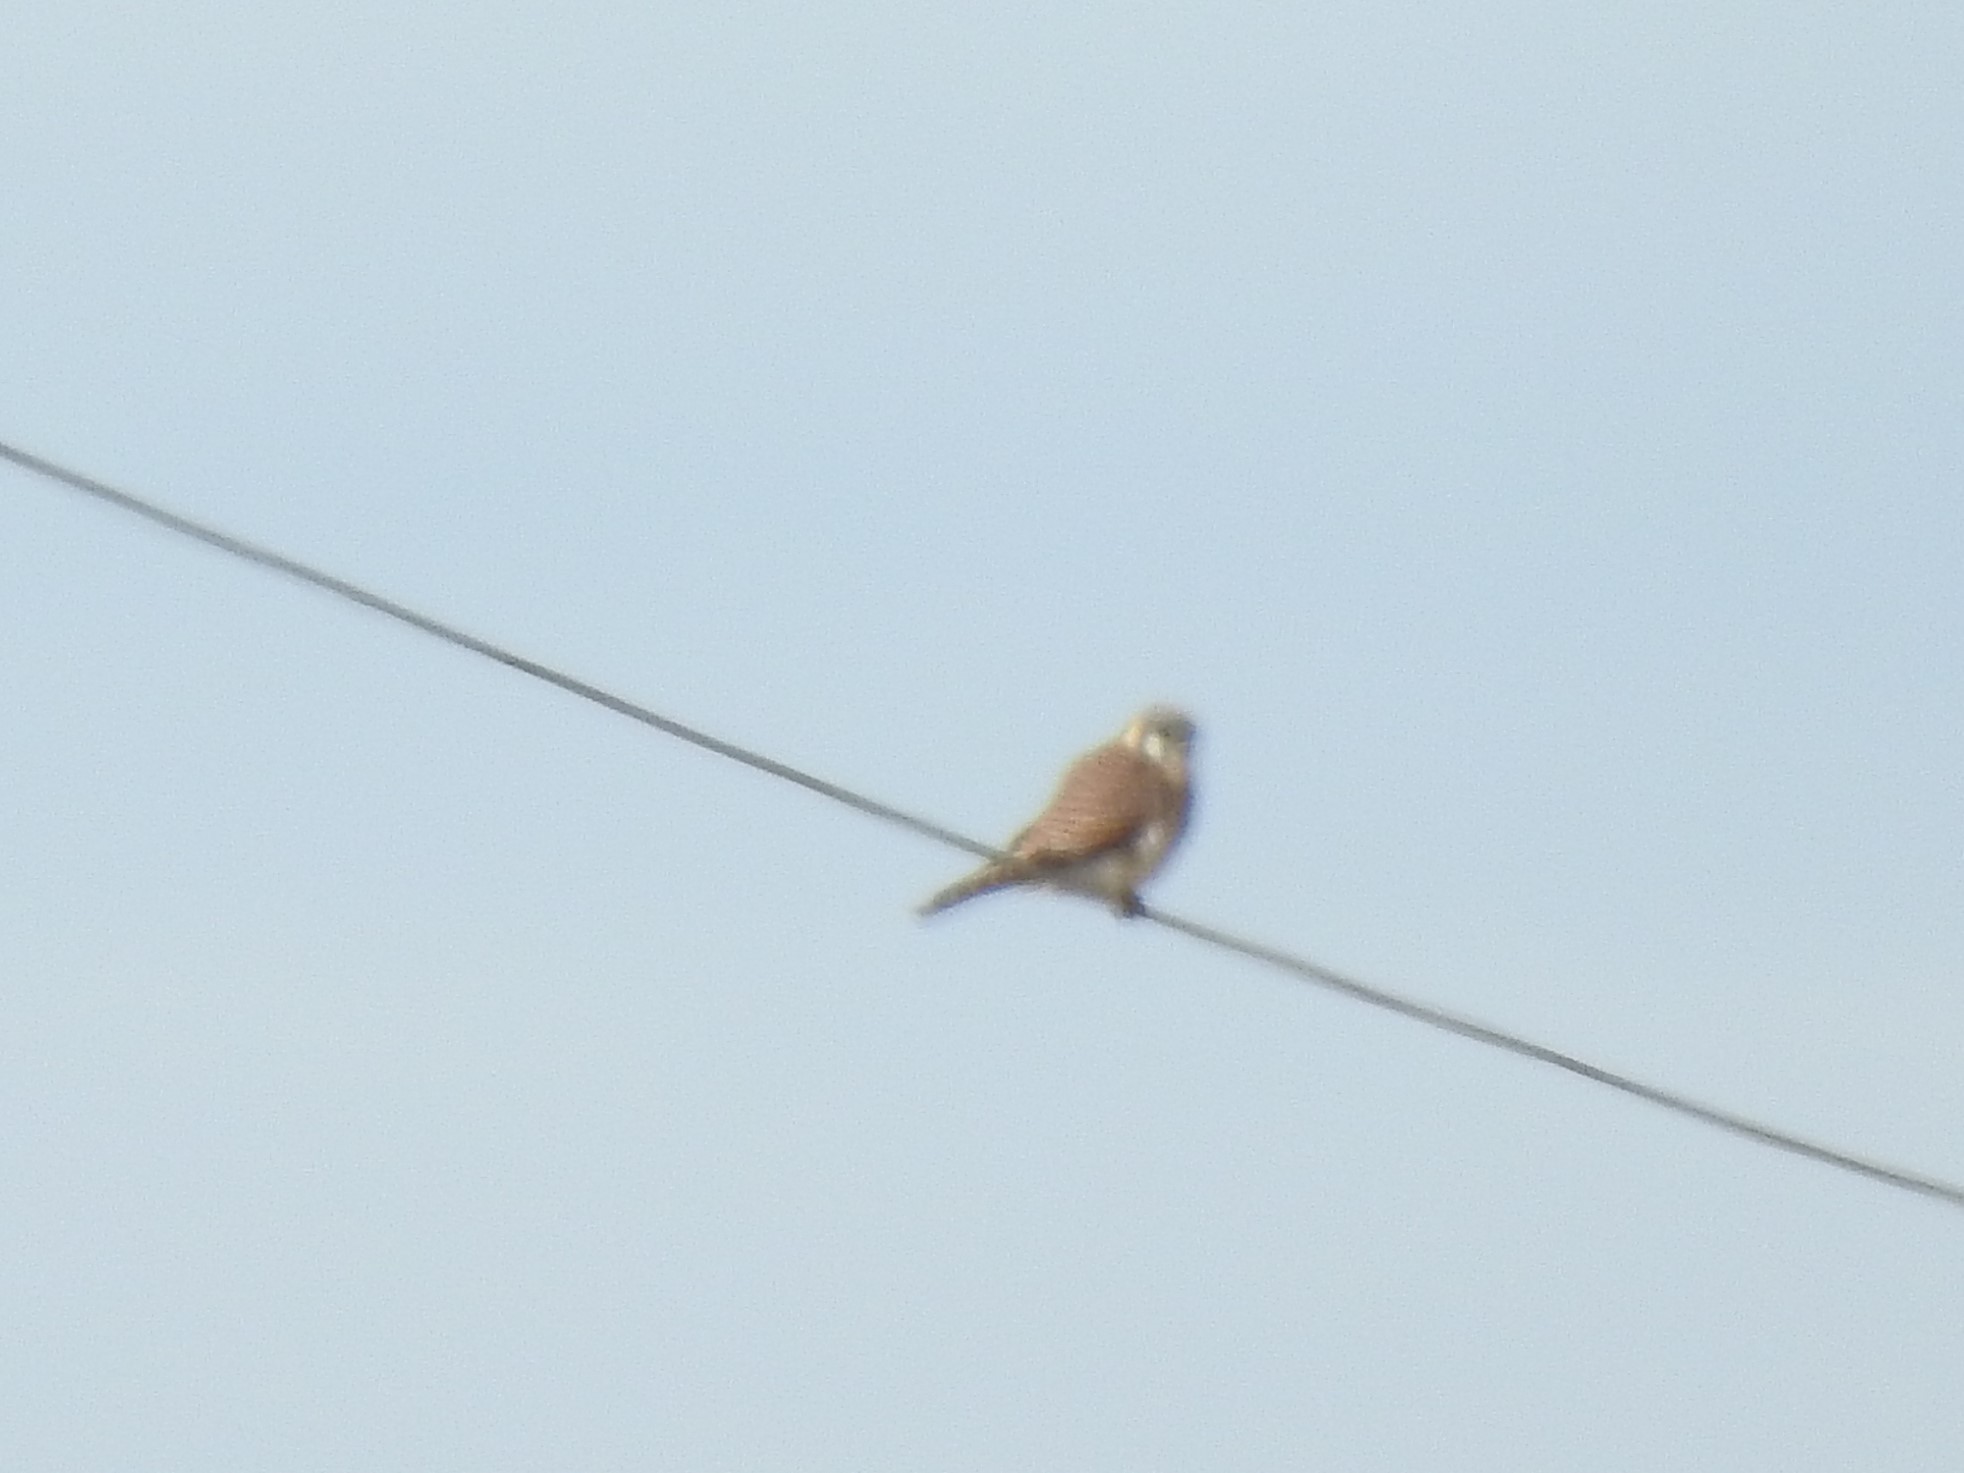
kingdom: Animalia
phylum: Chordata
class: Aves
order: Falconiformes
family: Falconidae
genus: Falco
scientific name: Falco sparverius
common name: American kestrel
